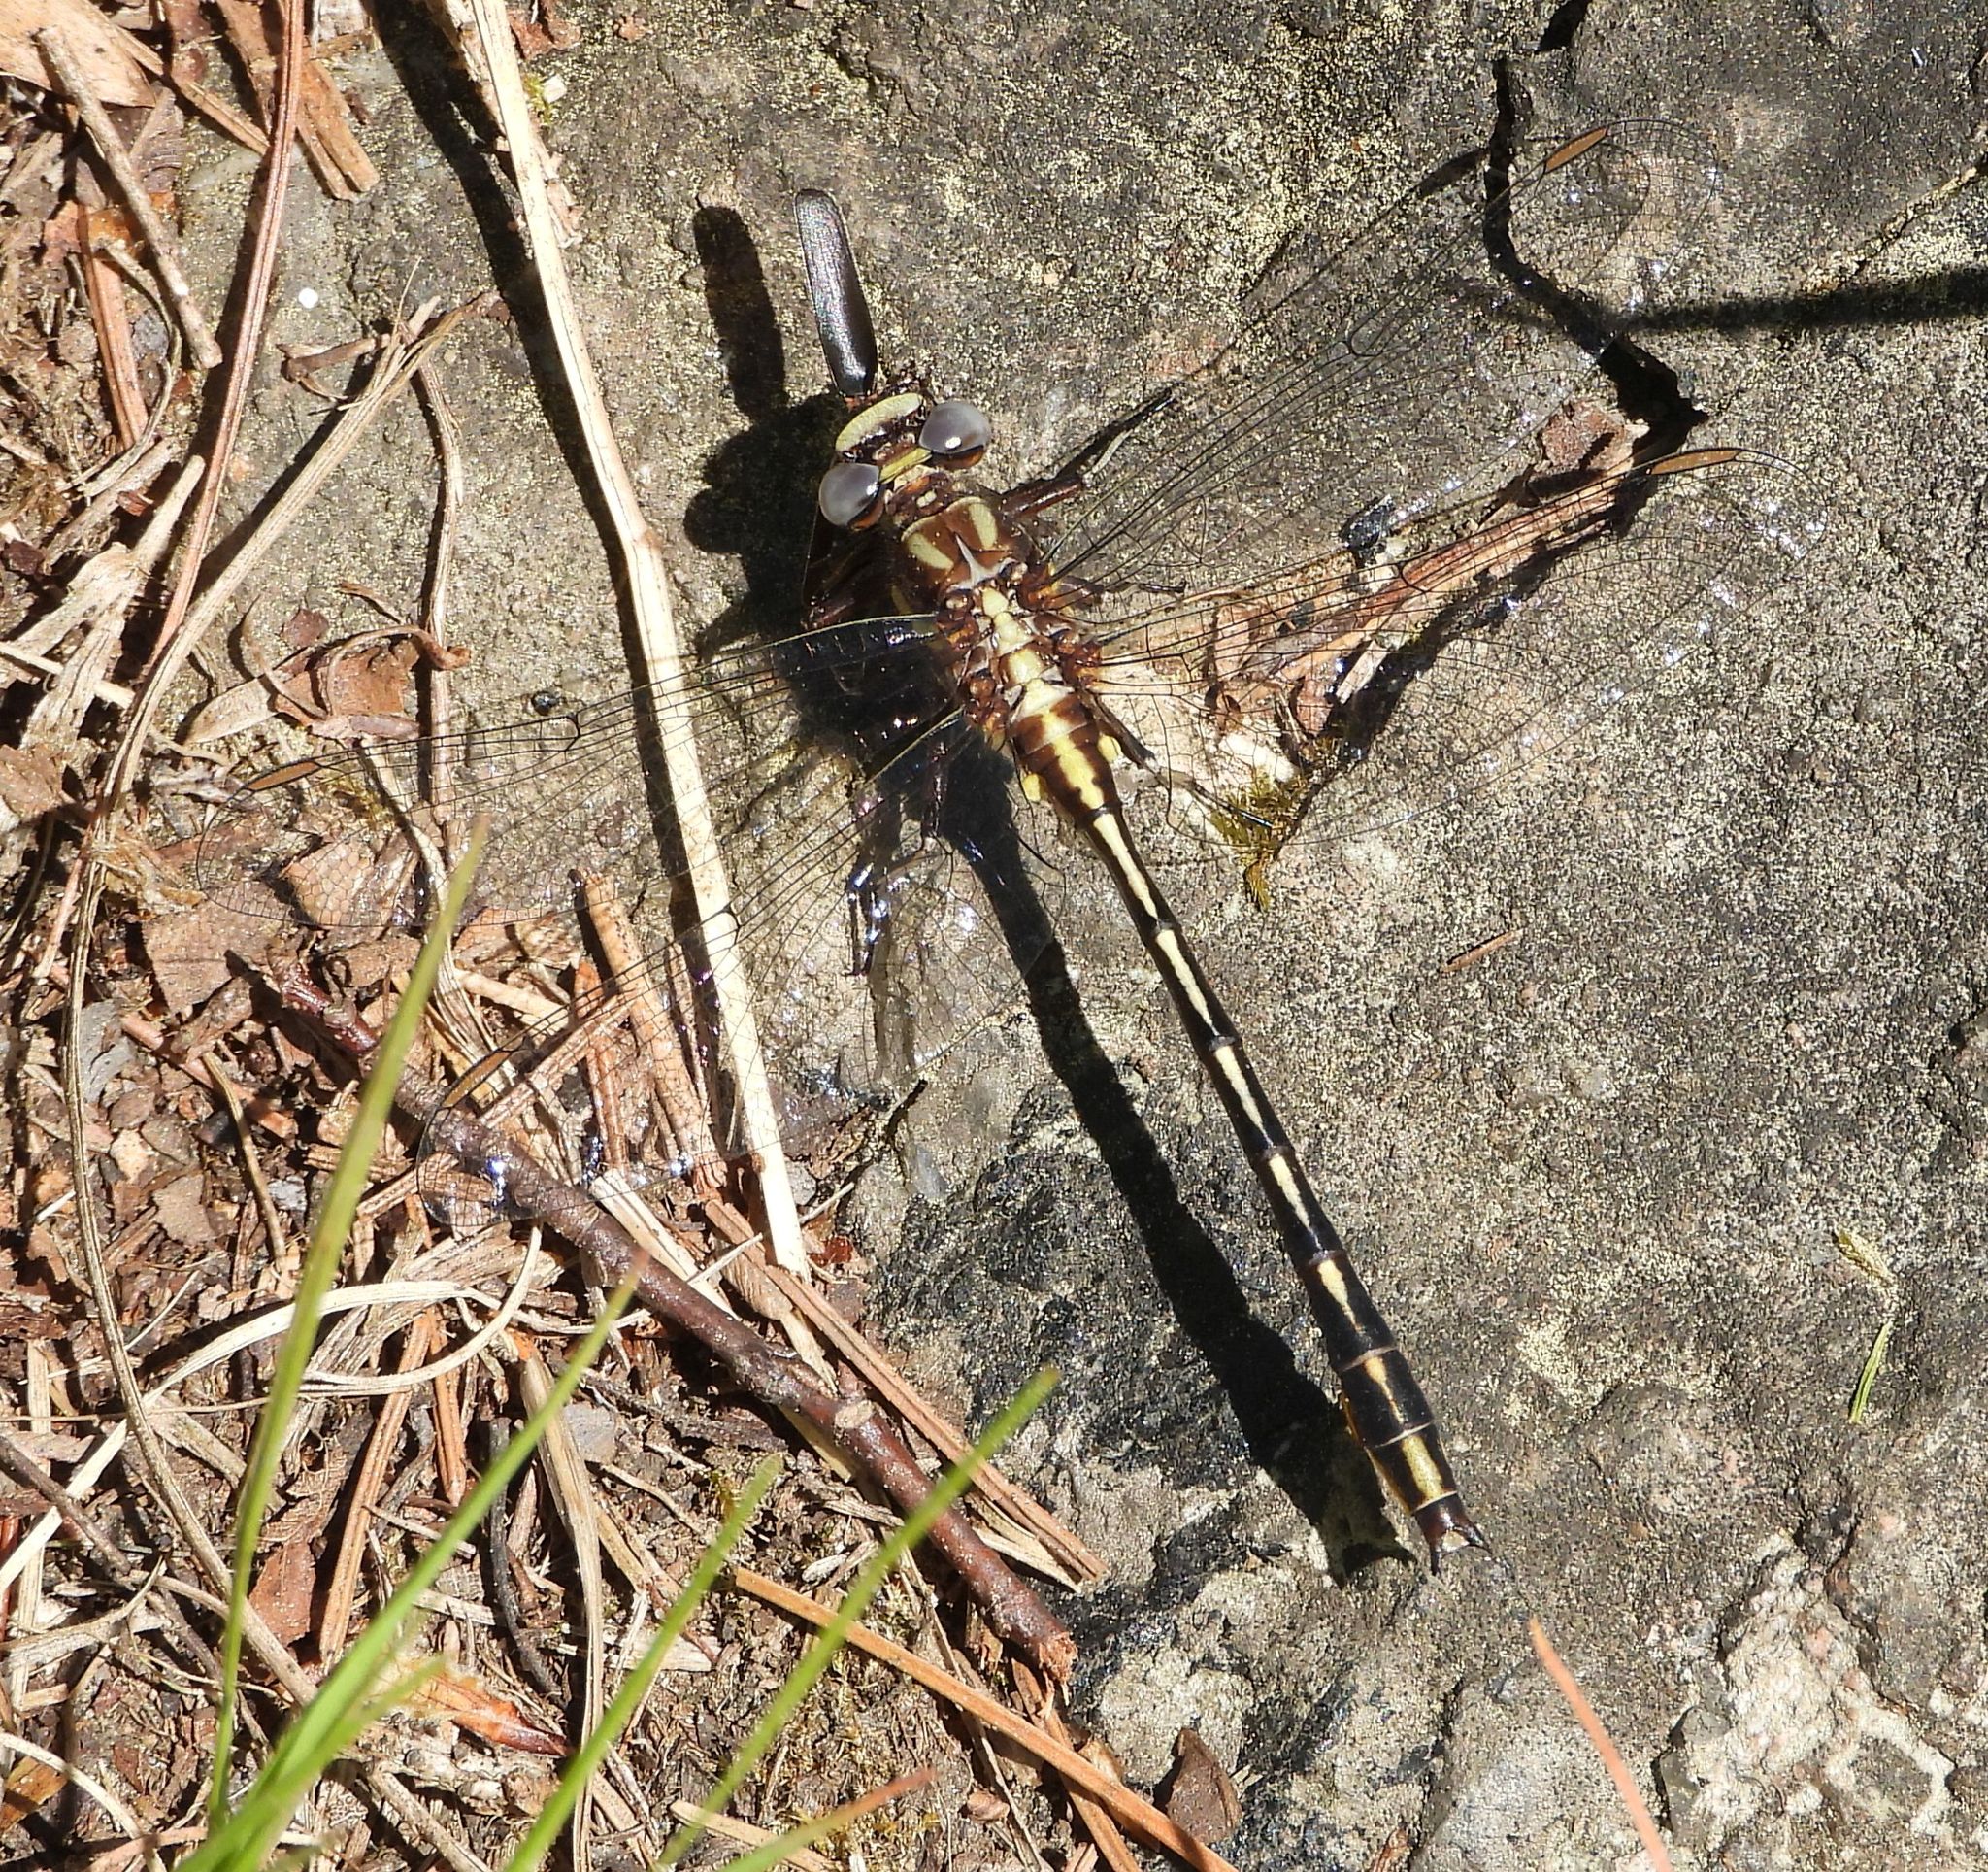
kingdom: Animalia
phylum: Arthropoda
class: Insecta
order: Odonata
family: Gomphidae
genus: Phanogomphus
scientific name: Phanogomphus exilis
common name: Lancet clubtail
